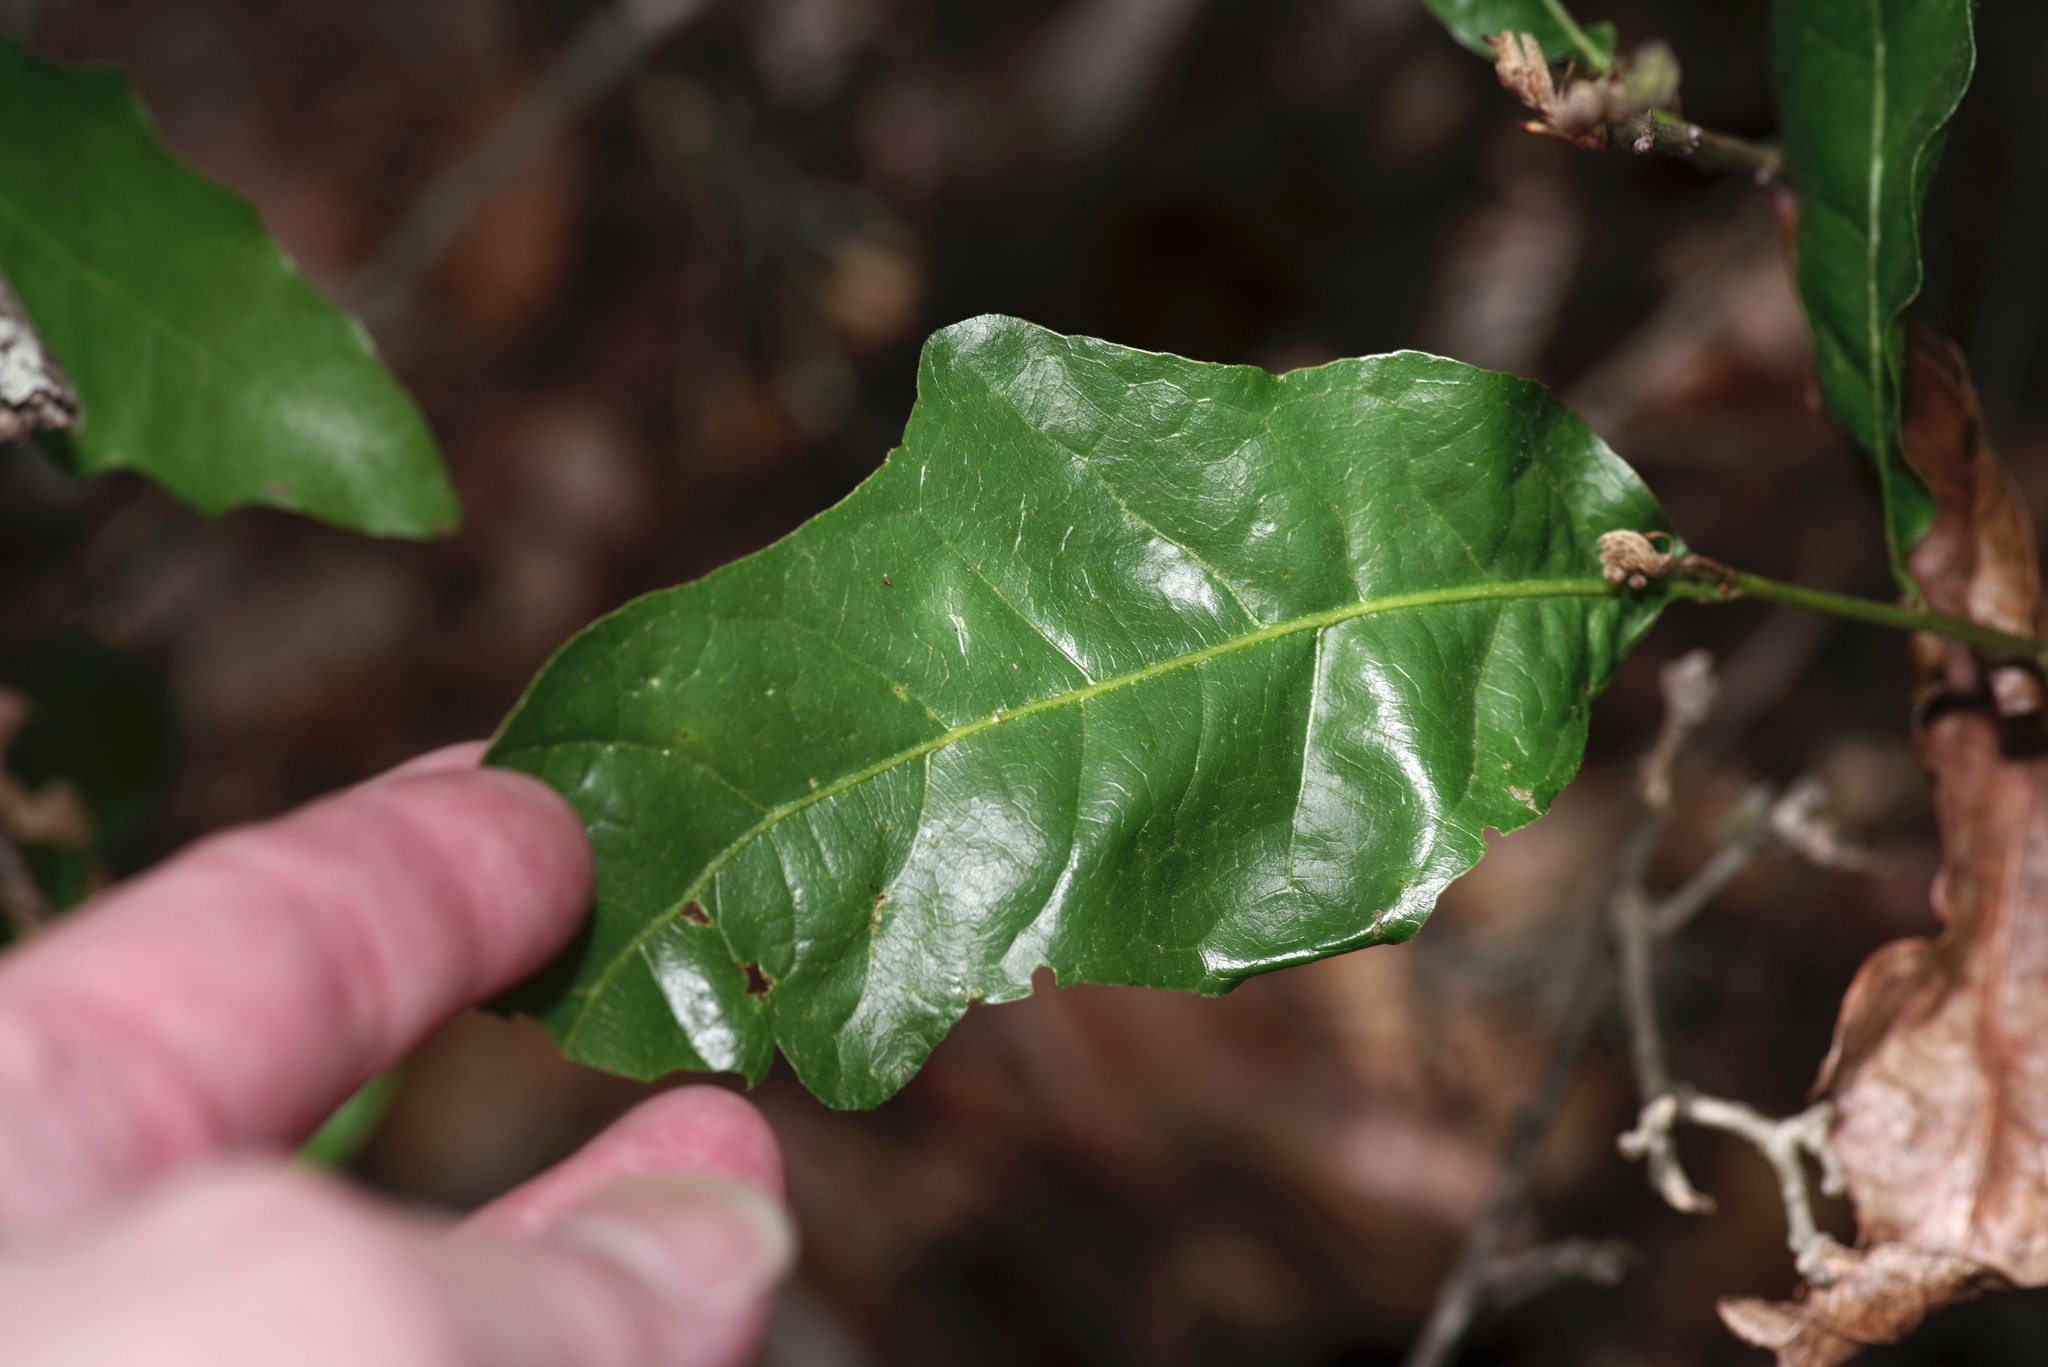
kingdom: Plantae
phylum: Tracheophyta
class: Magnoliopsida
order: Fagales
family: Fagaceae
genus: Quercus
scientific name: Quercus sinuata
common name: Durand oak
